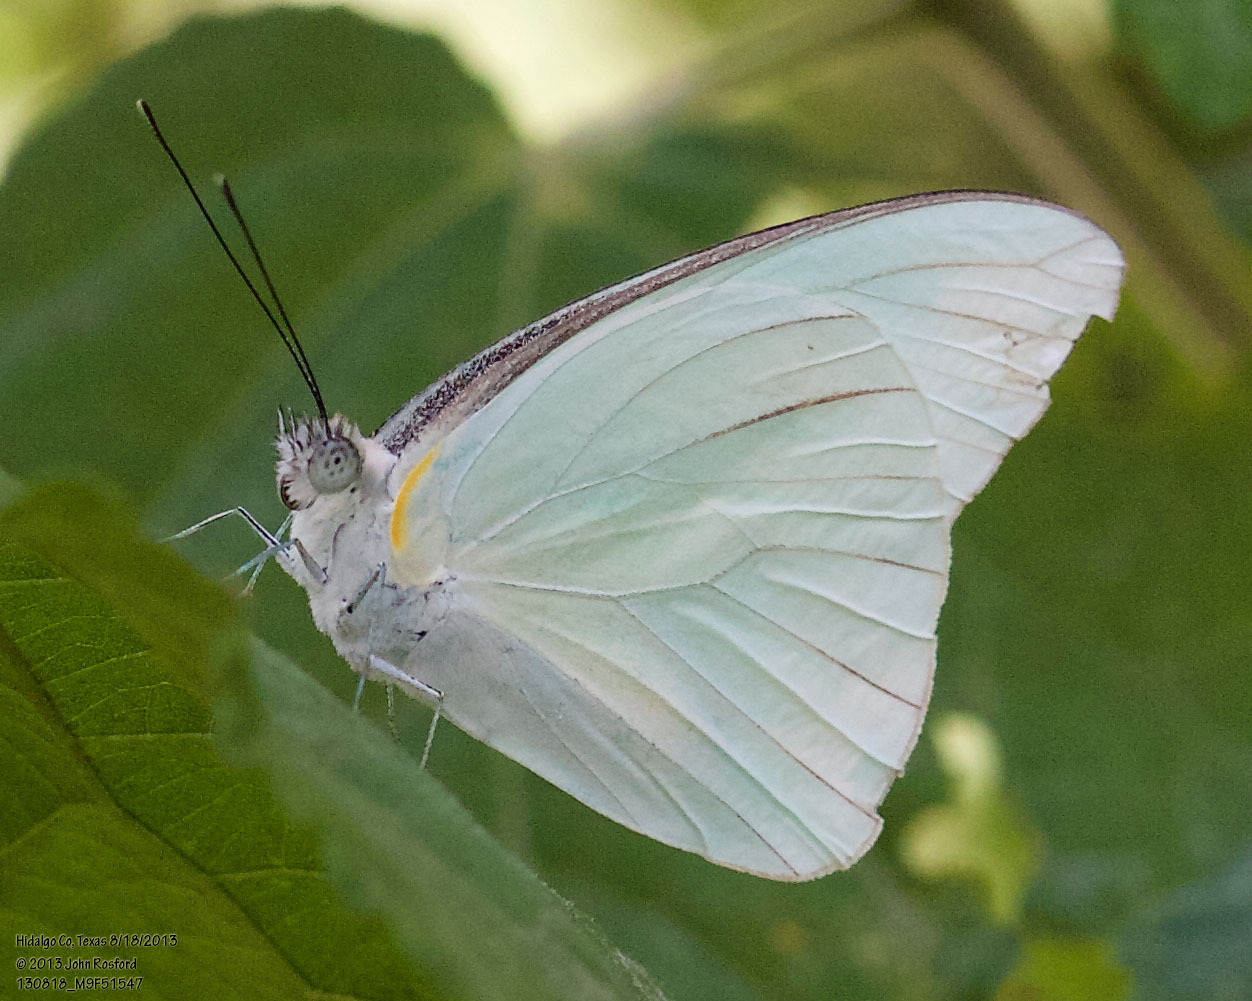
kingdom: Animalia
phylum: Arthropoda
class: Insecta
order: Lepidoptera
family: Pieridae
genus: Glutophrissa
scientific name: Glutophrissa drusilla
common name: Florida white
